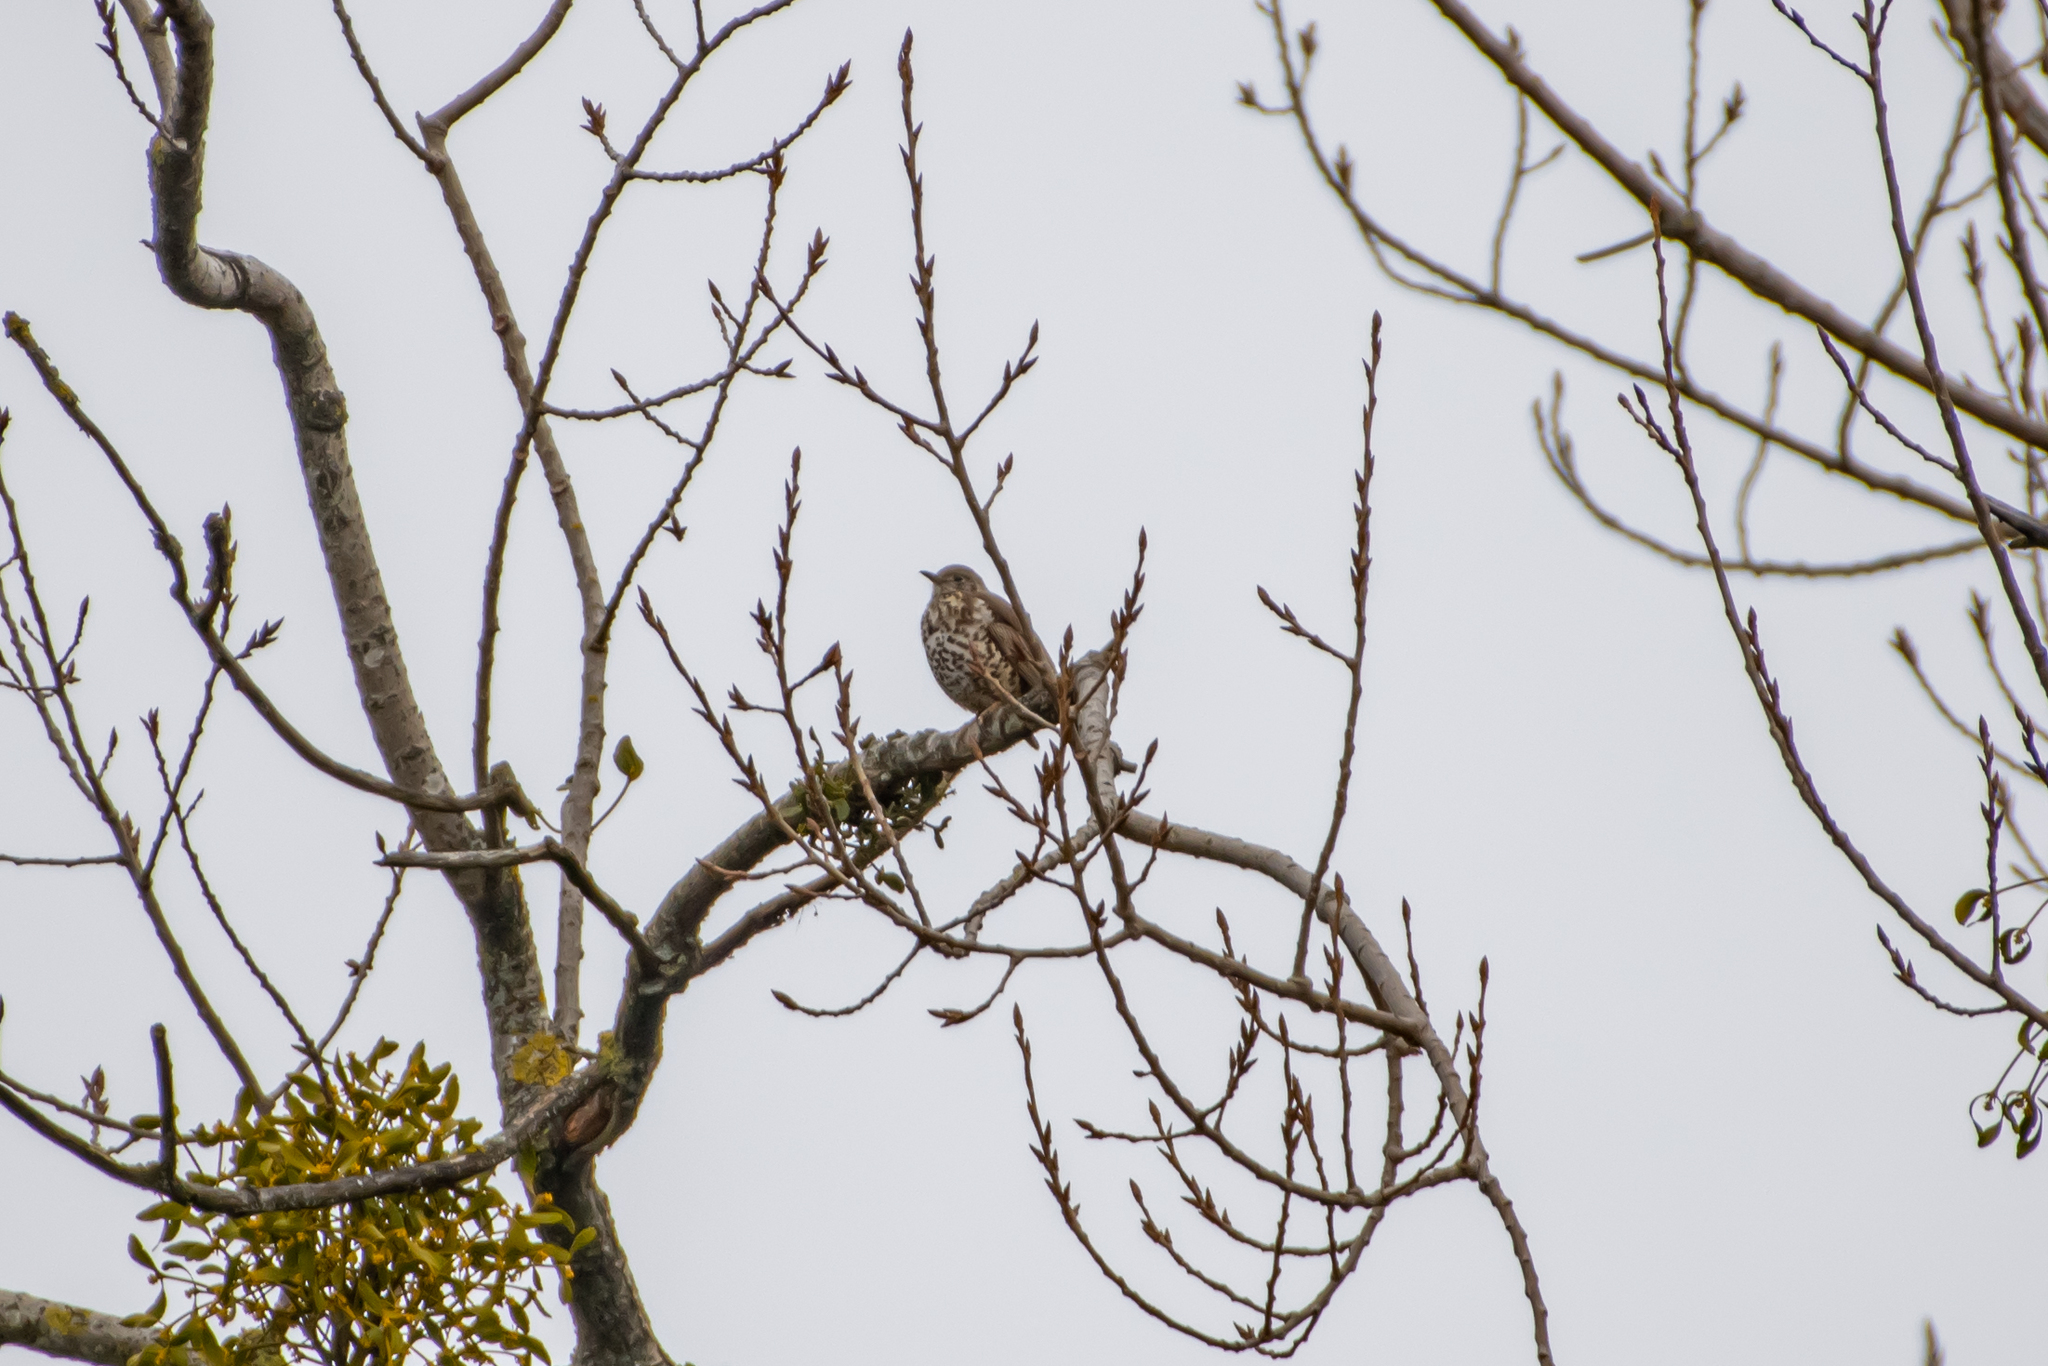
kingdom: Animalia
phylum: Chordata
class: Aves
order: Passeriformes
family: Turdidae
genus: Turdus
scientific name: Turdus viscivorus
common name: Mistle thrush
